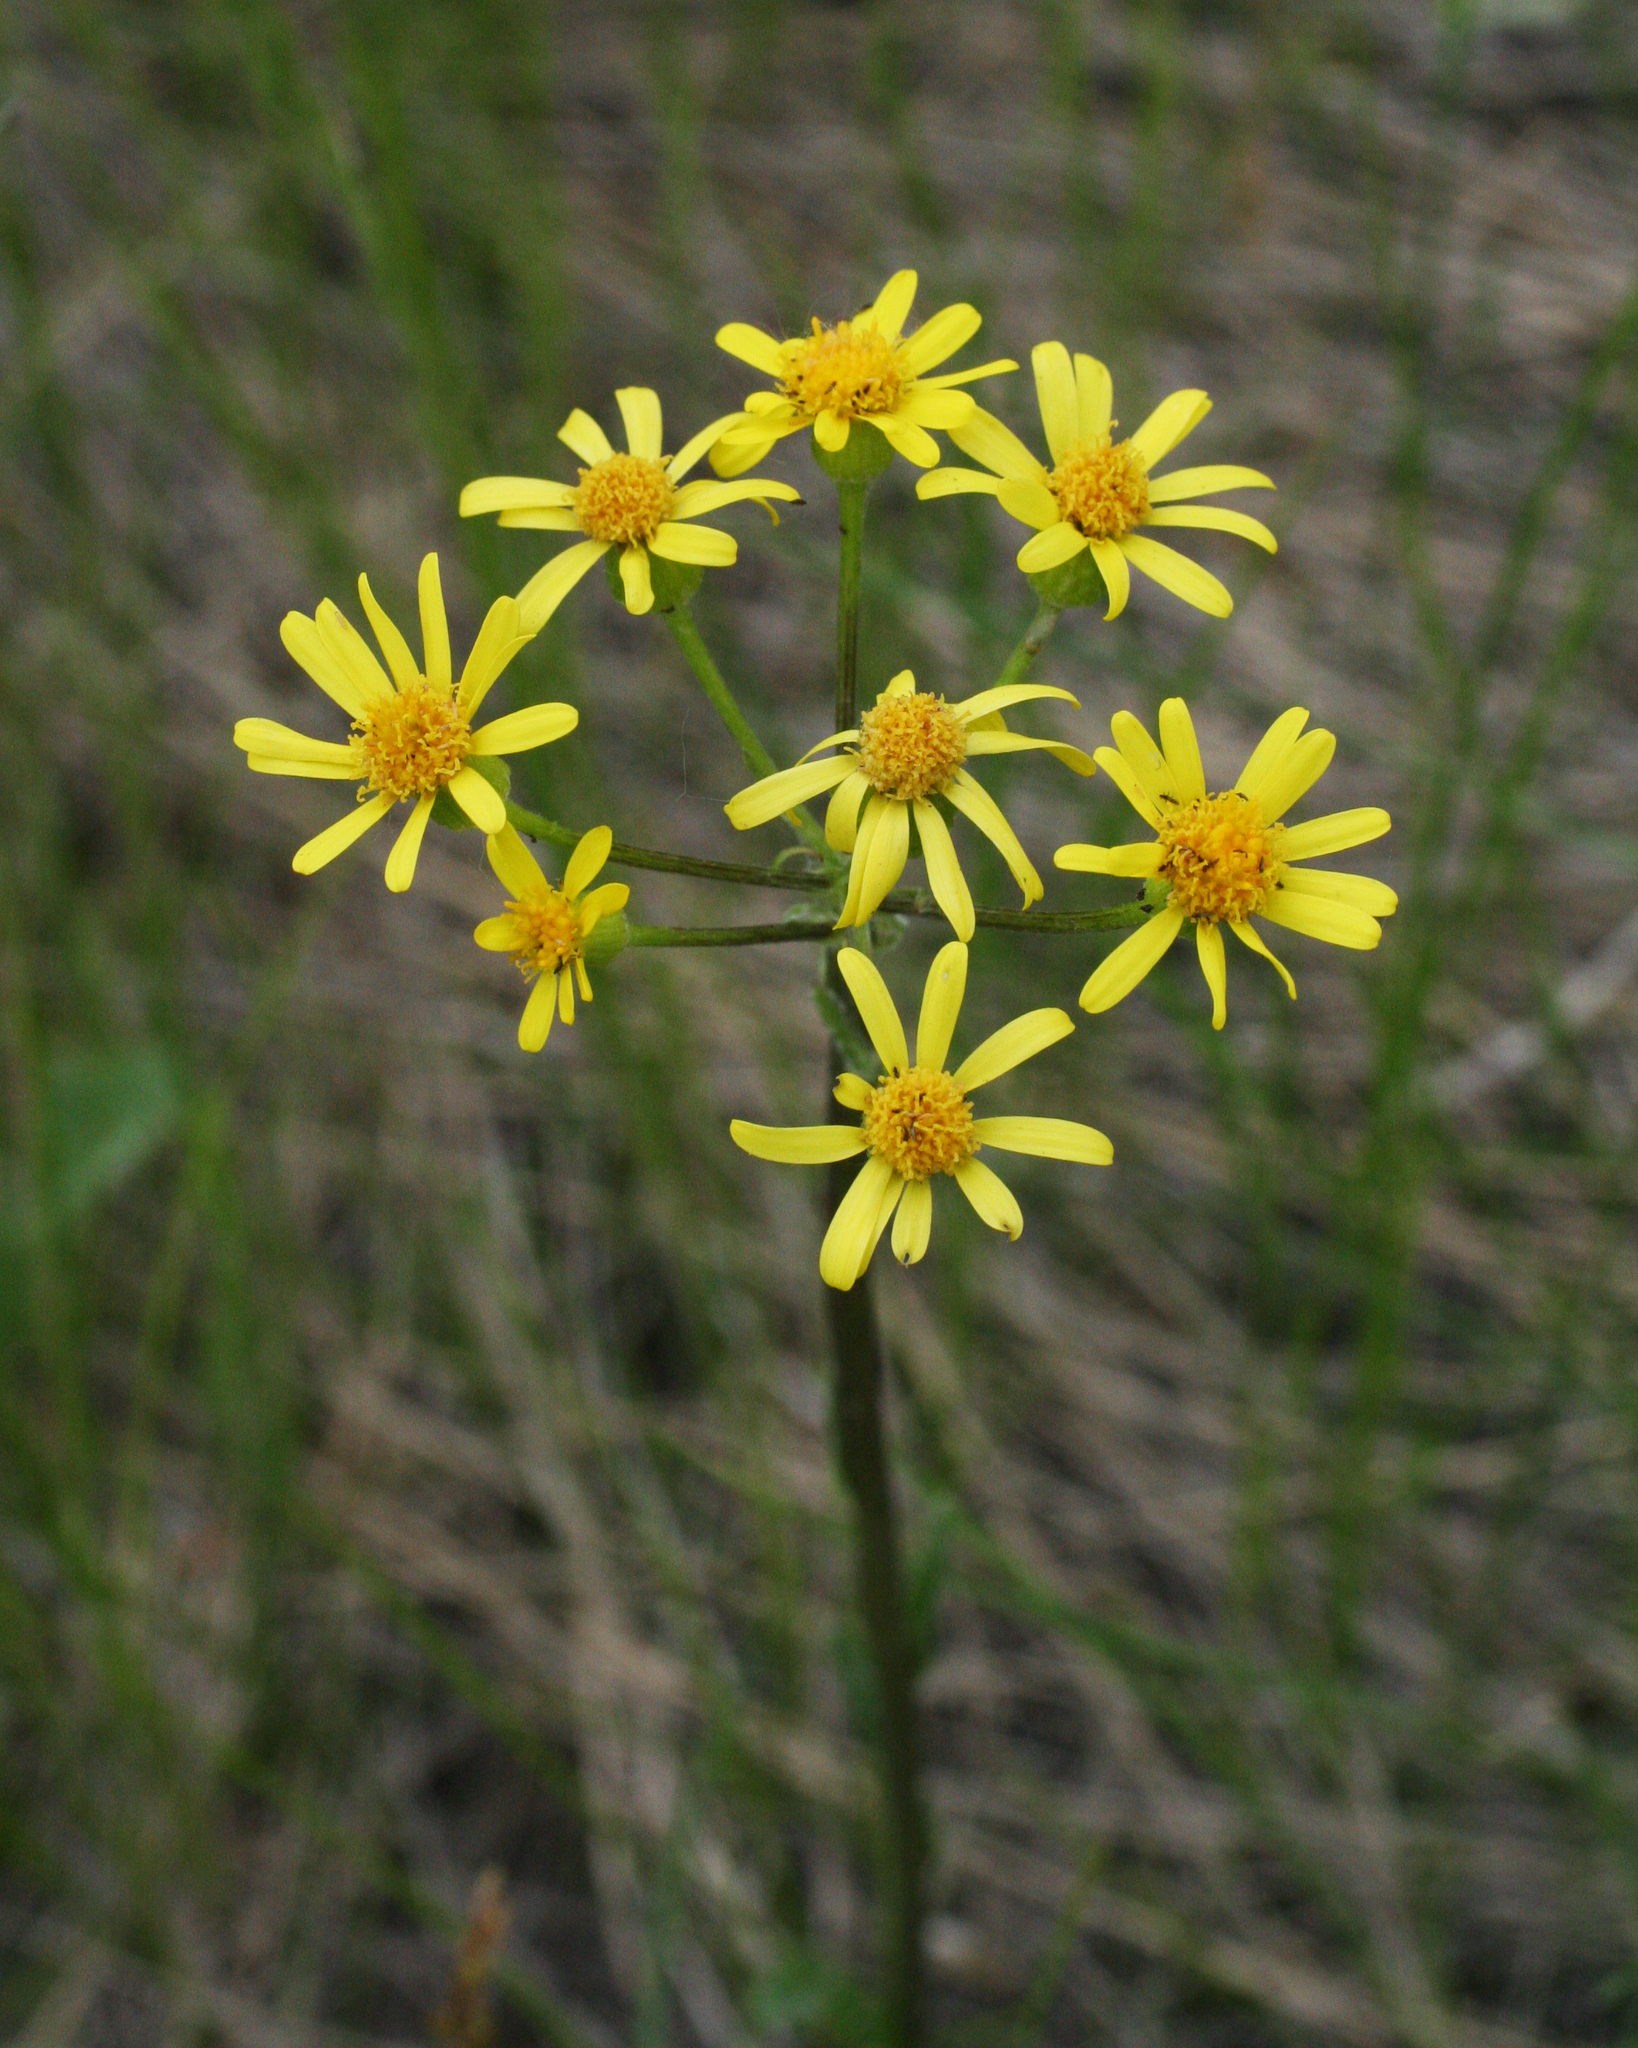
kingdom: Plantae
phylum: Tracheophyta
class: Magnoliopsida
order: Asterales
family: Asteraceae
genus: Tephroseris
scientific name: Tephroseris integrifolia
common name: Field fleawort
